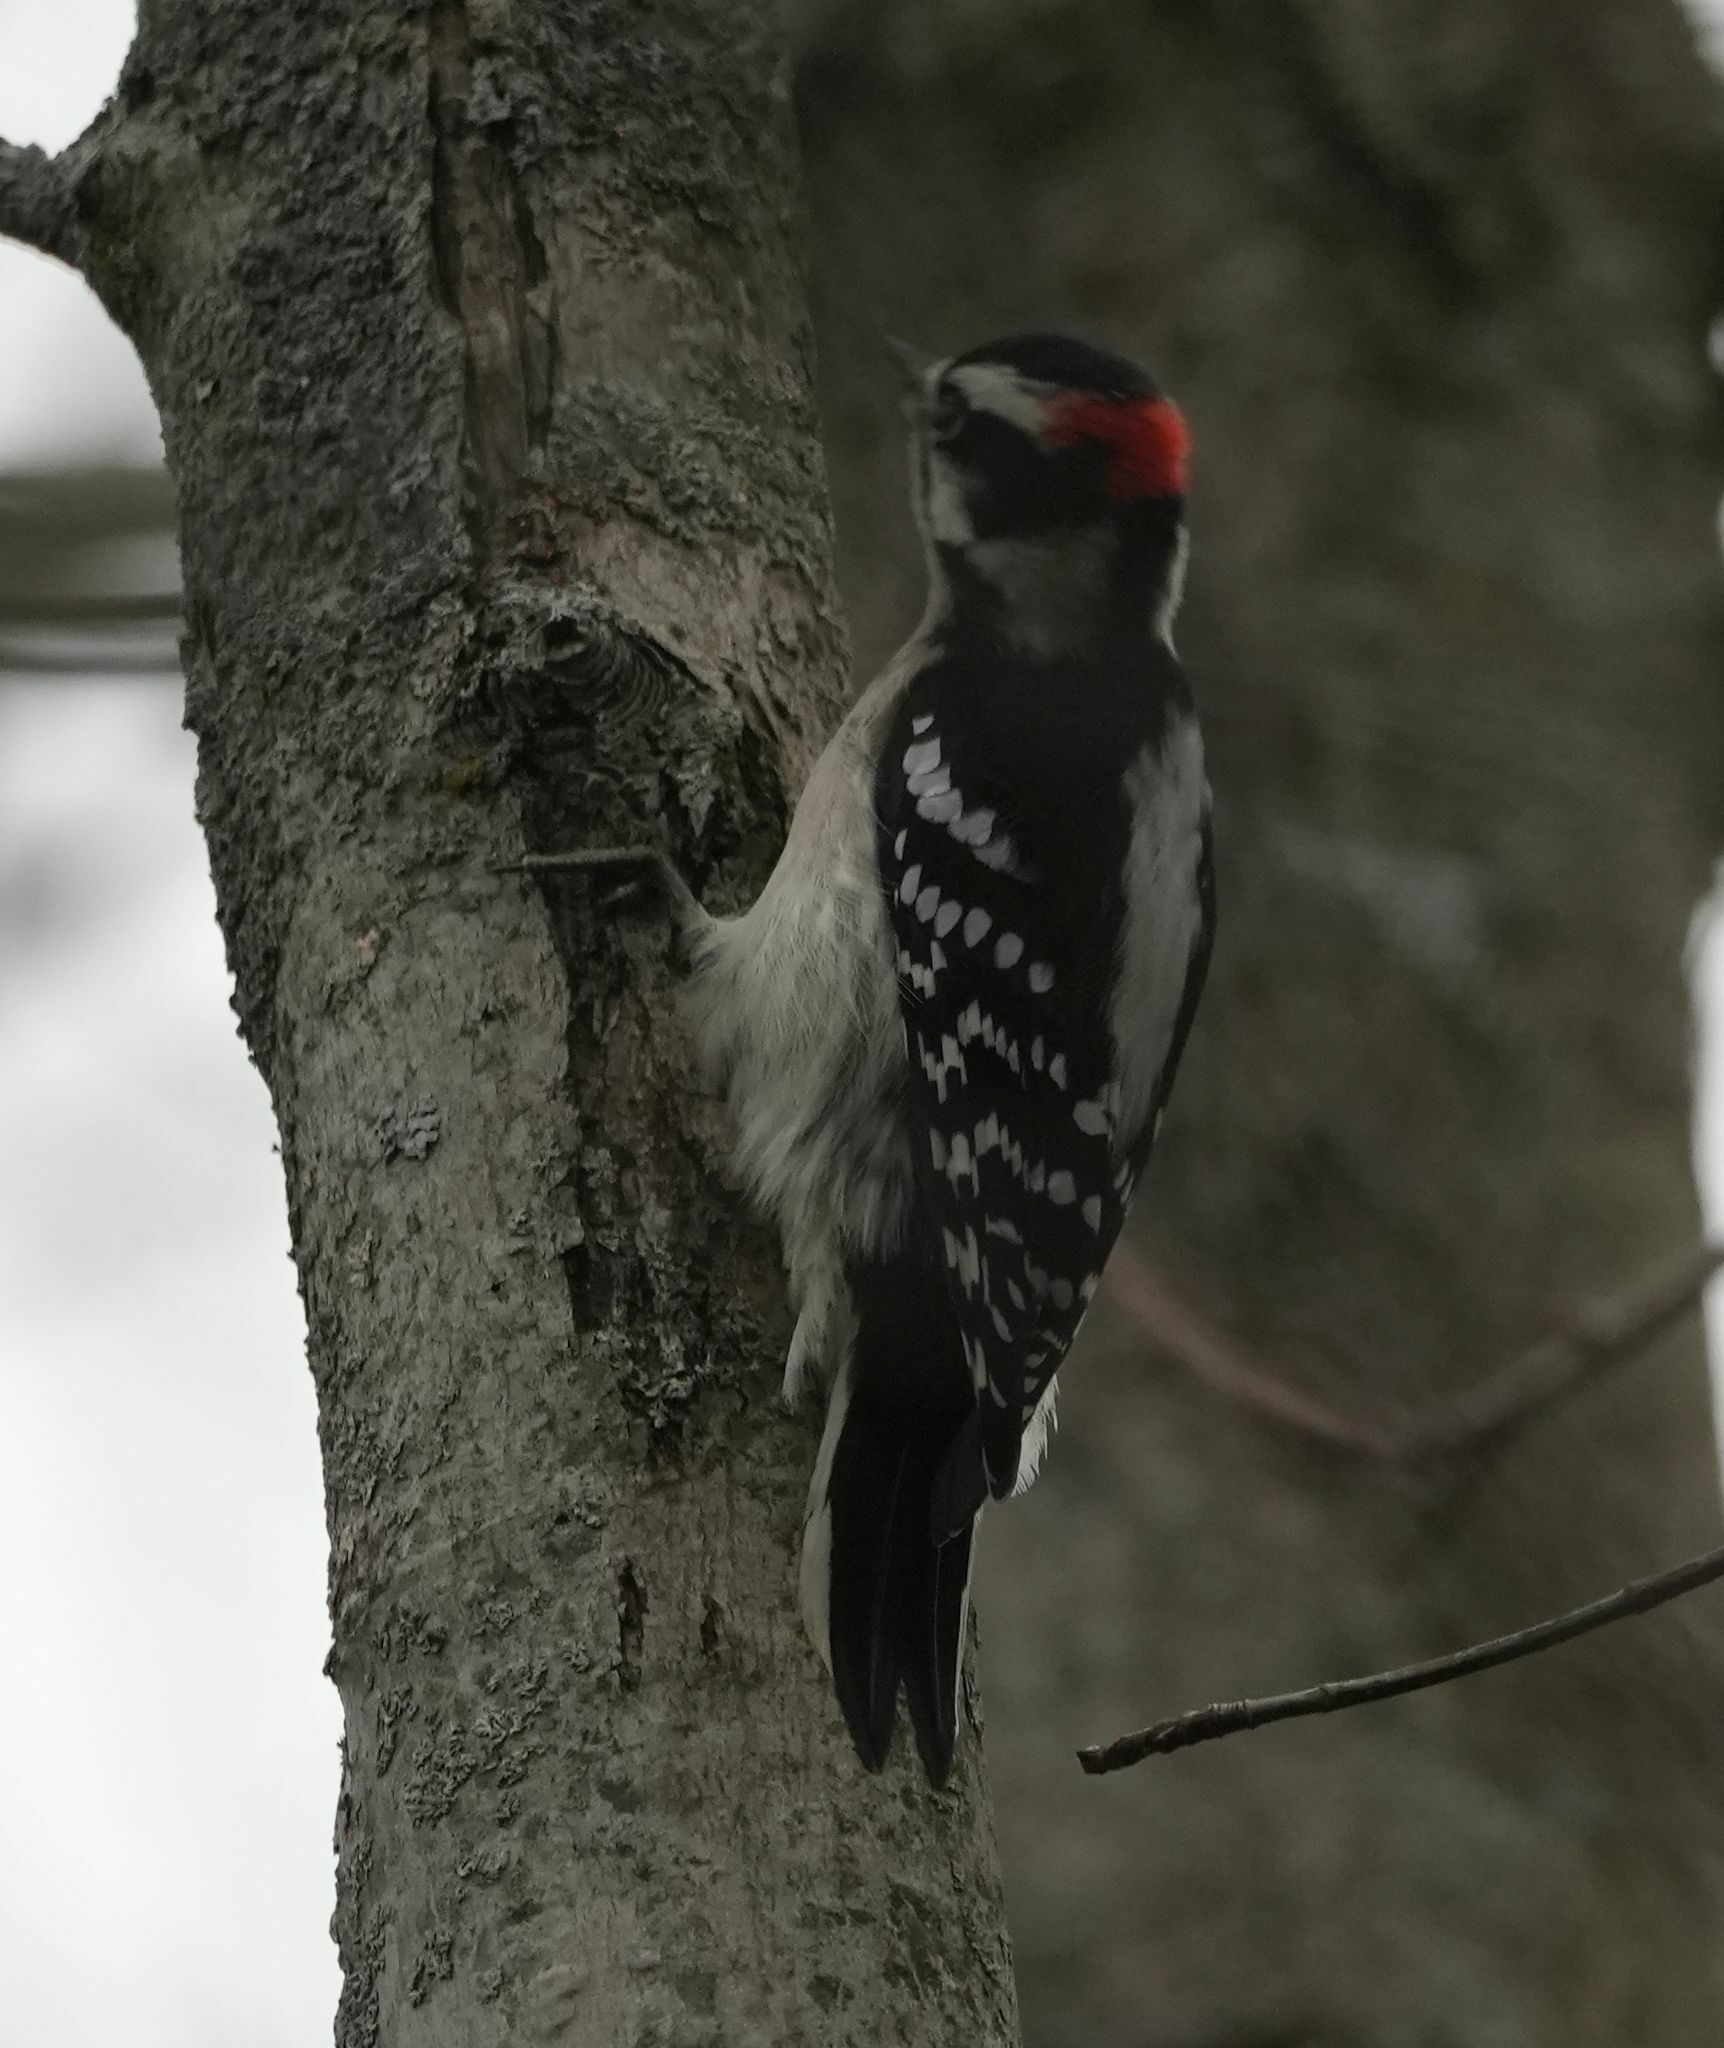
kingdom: Animalia
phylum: Chordata
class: Aves
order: Piciformes
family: Picidae
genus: Dryobates
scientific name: Dryobates pubescens
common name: Downy woodpecker
